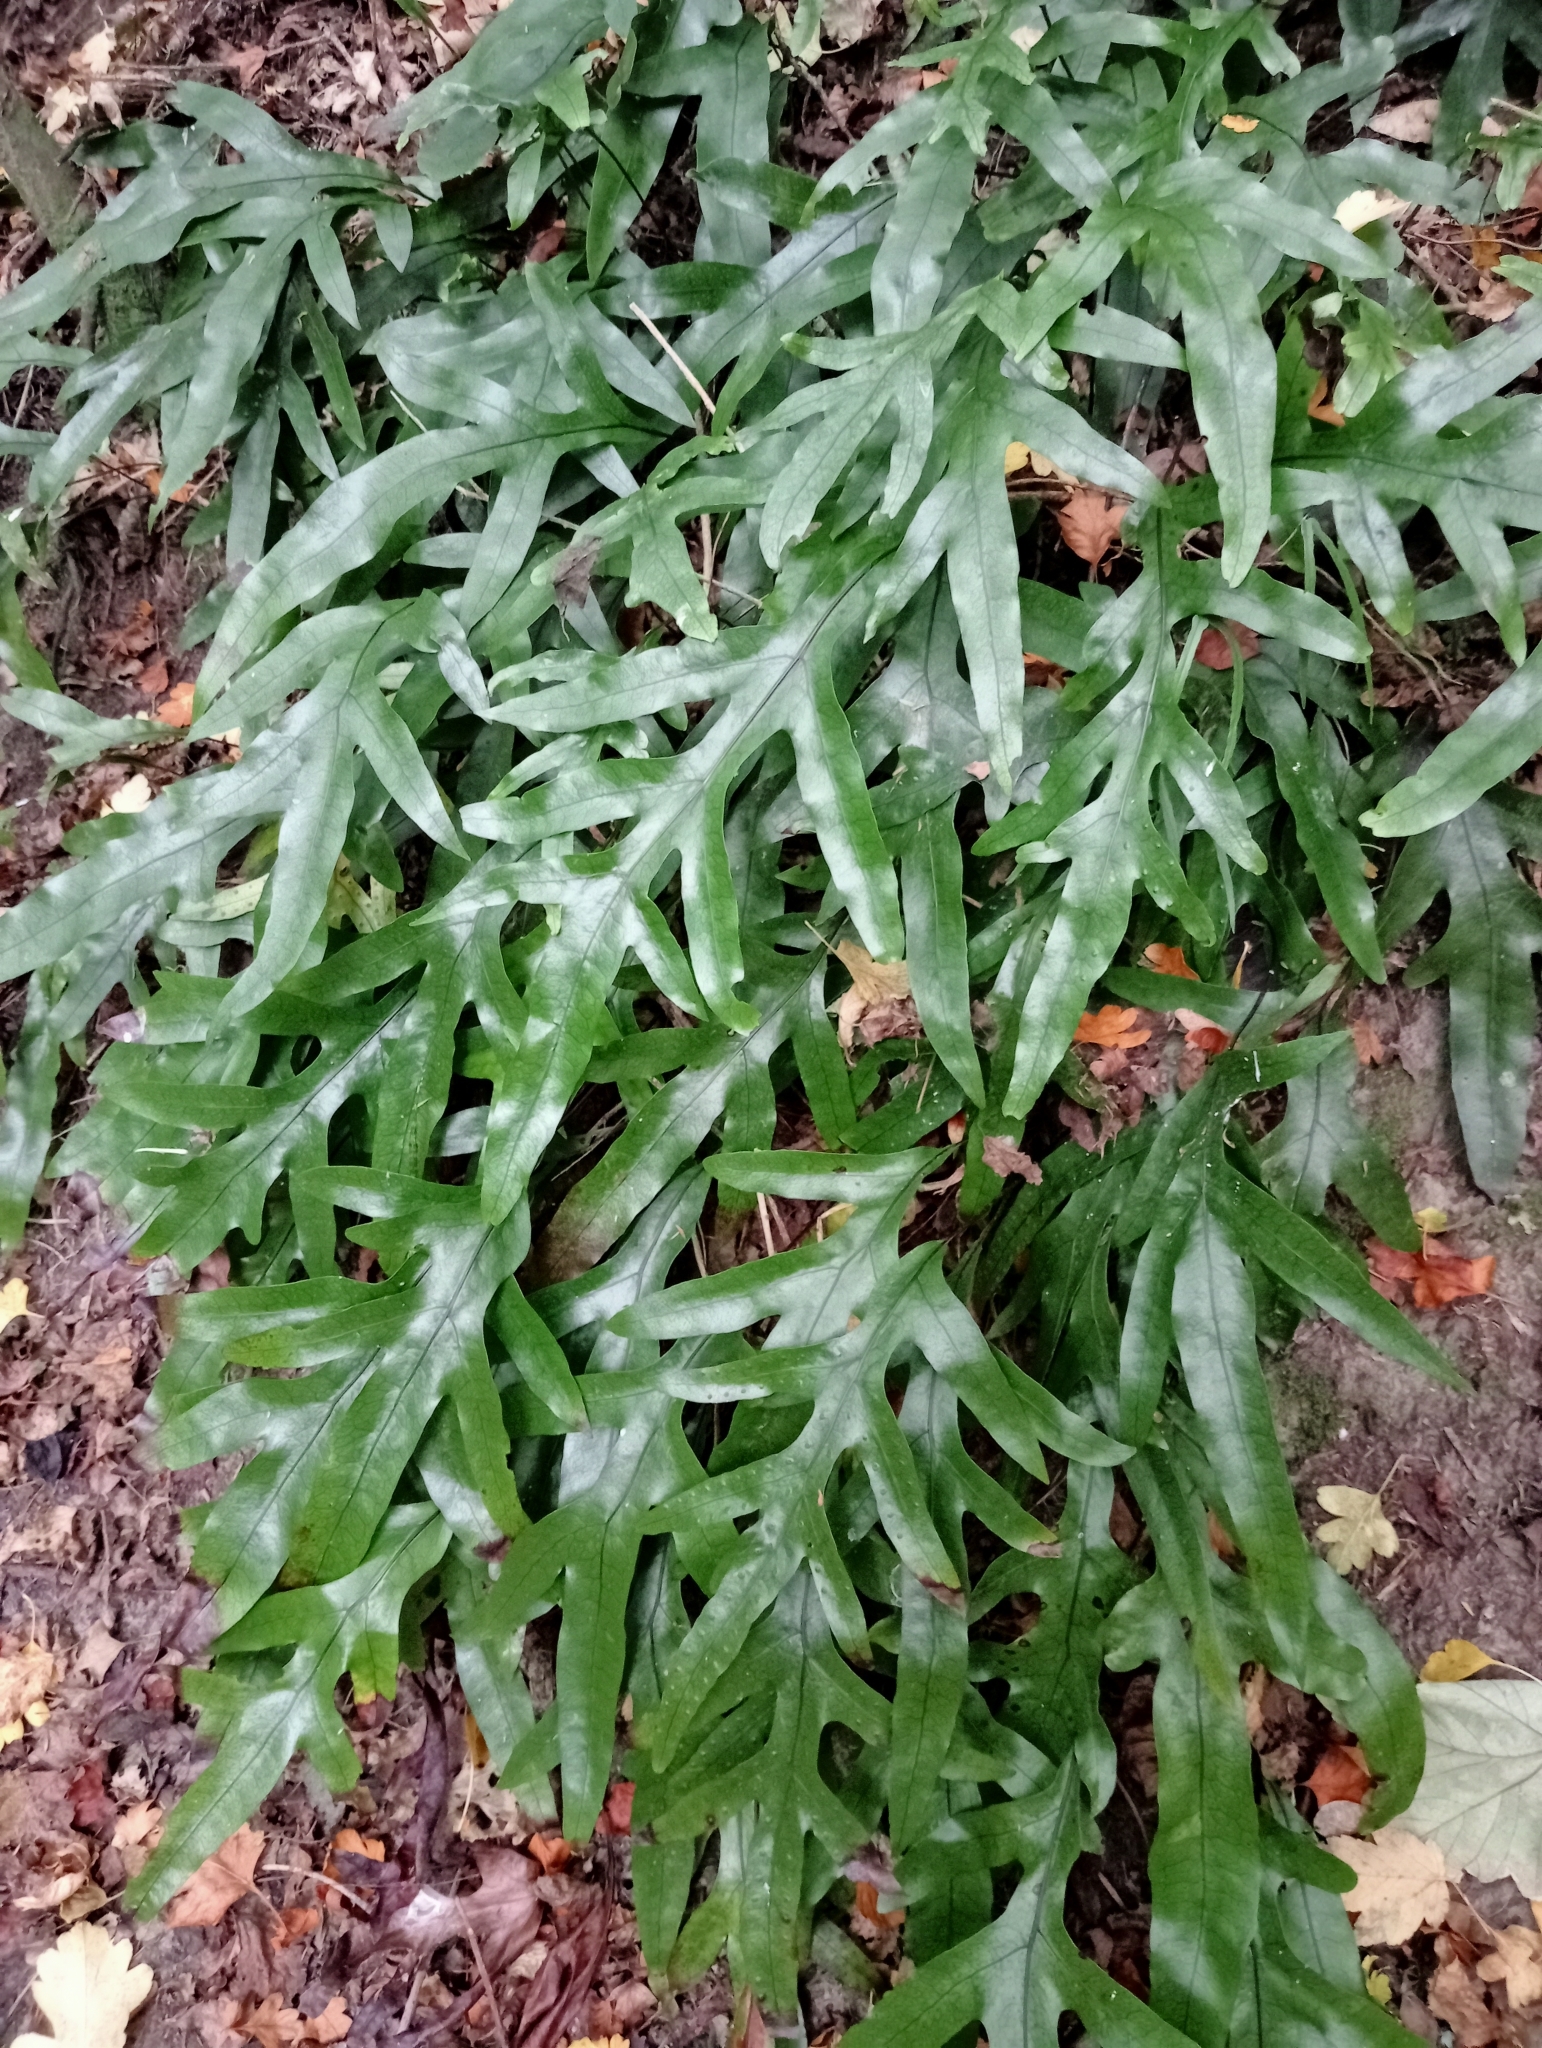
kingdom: Plantae
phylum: Tracheophyta
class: Polypodiopsida
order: Polypodiales
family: Polypodiaceae
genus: Lecanopteris
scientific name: Lecanopteris pustulata
